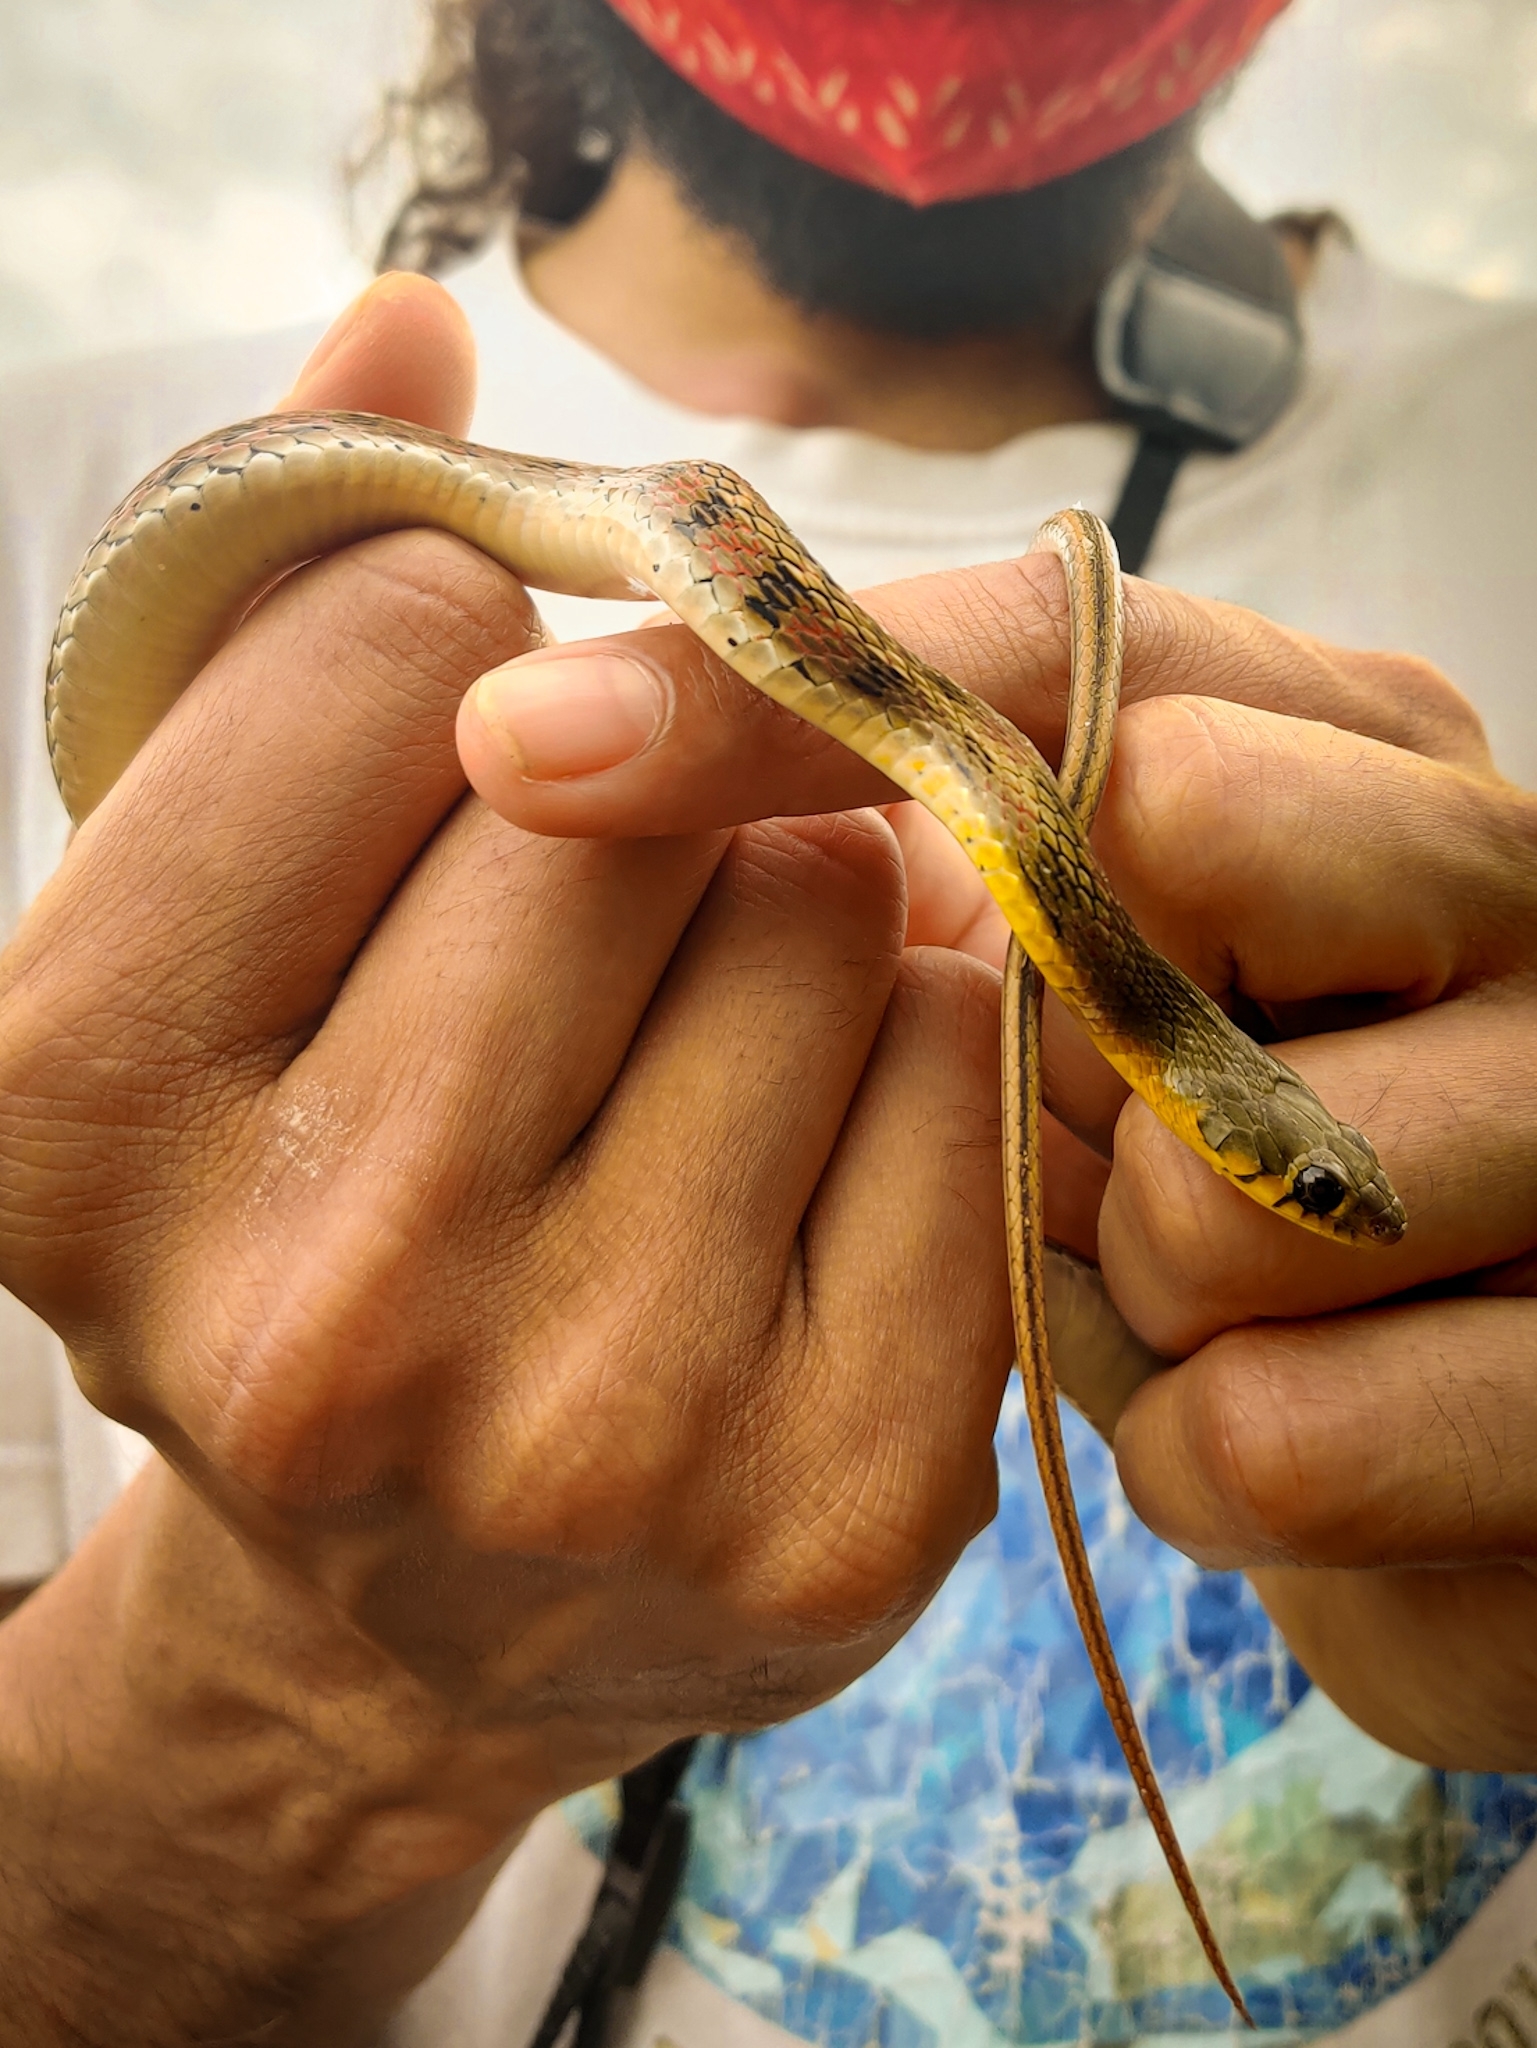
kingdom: Animalia
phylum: Chordata
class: Squamata
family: Colubridae
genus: Amphiesma
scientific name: Amphiesma stolatum
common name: Buff striped keelback
